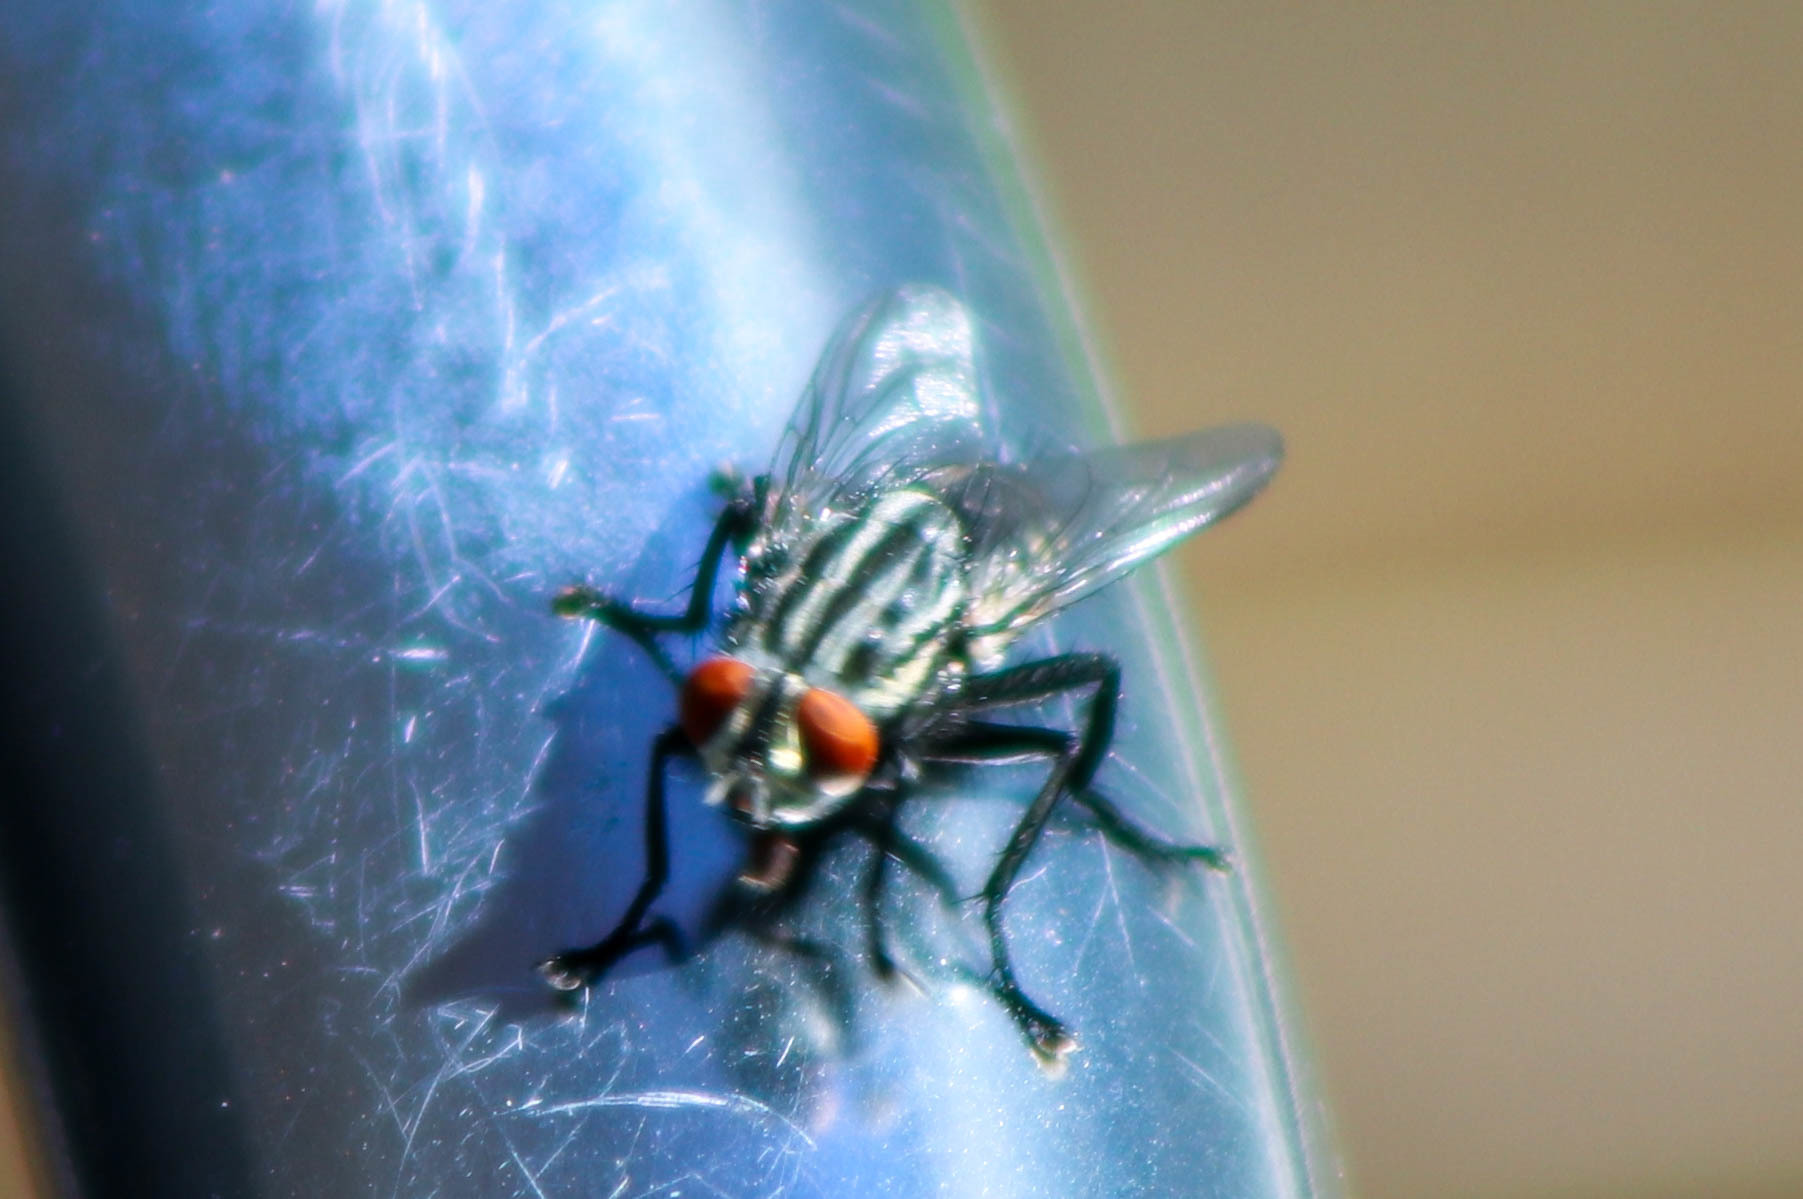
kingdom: Animalia
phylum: Arthropoda
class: Insecta
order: Diptera
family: Sarcophagidae
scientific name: Sarcophagidae
